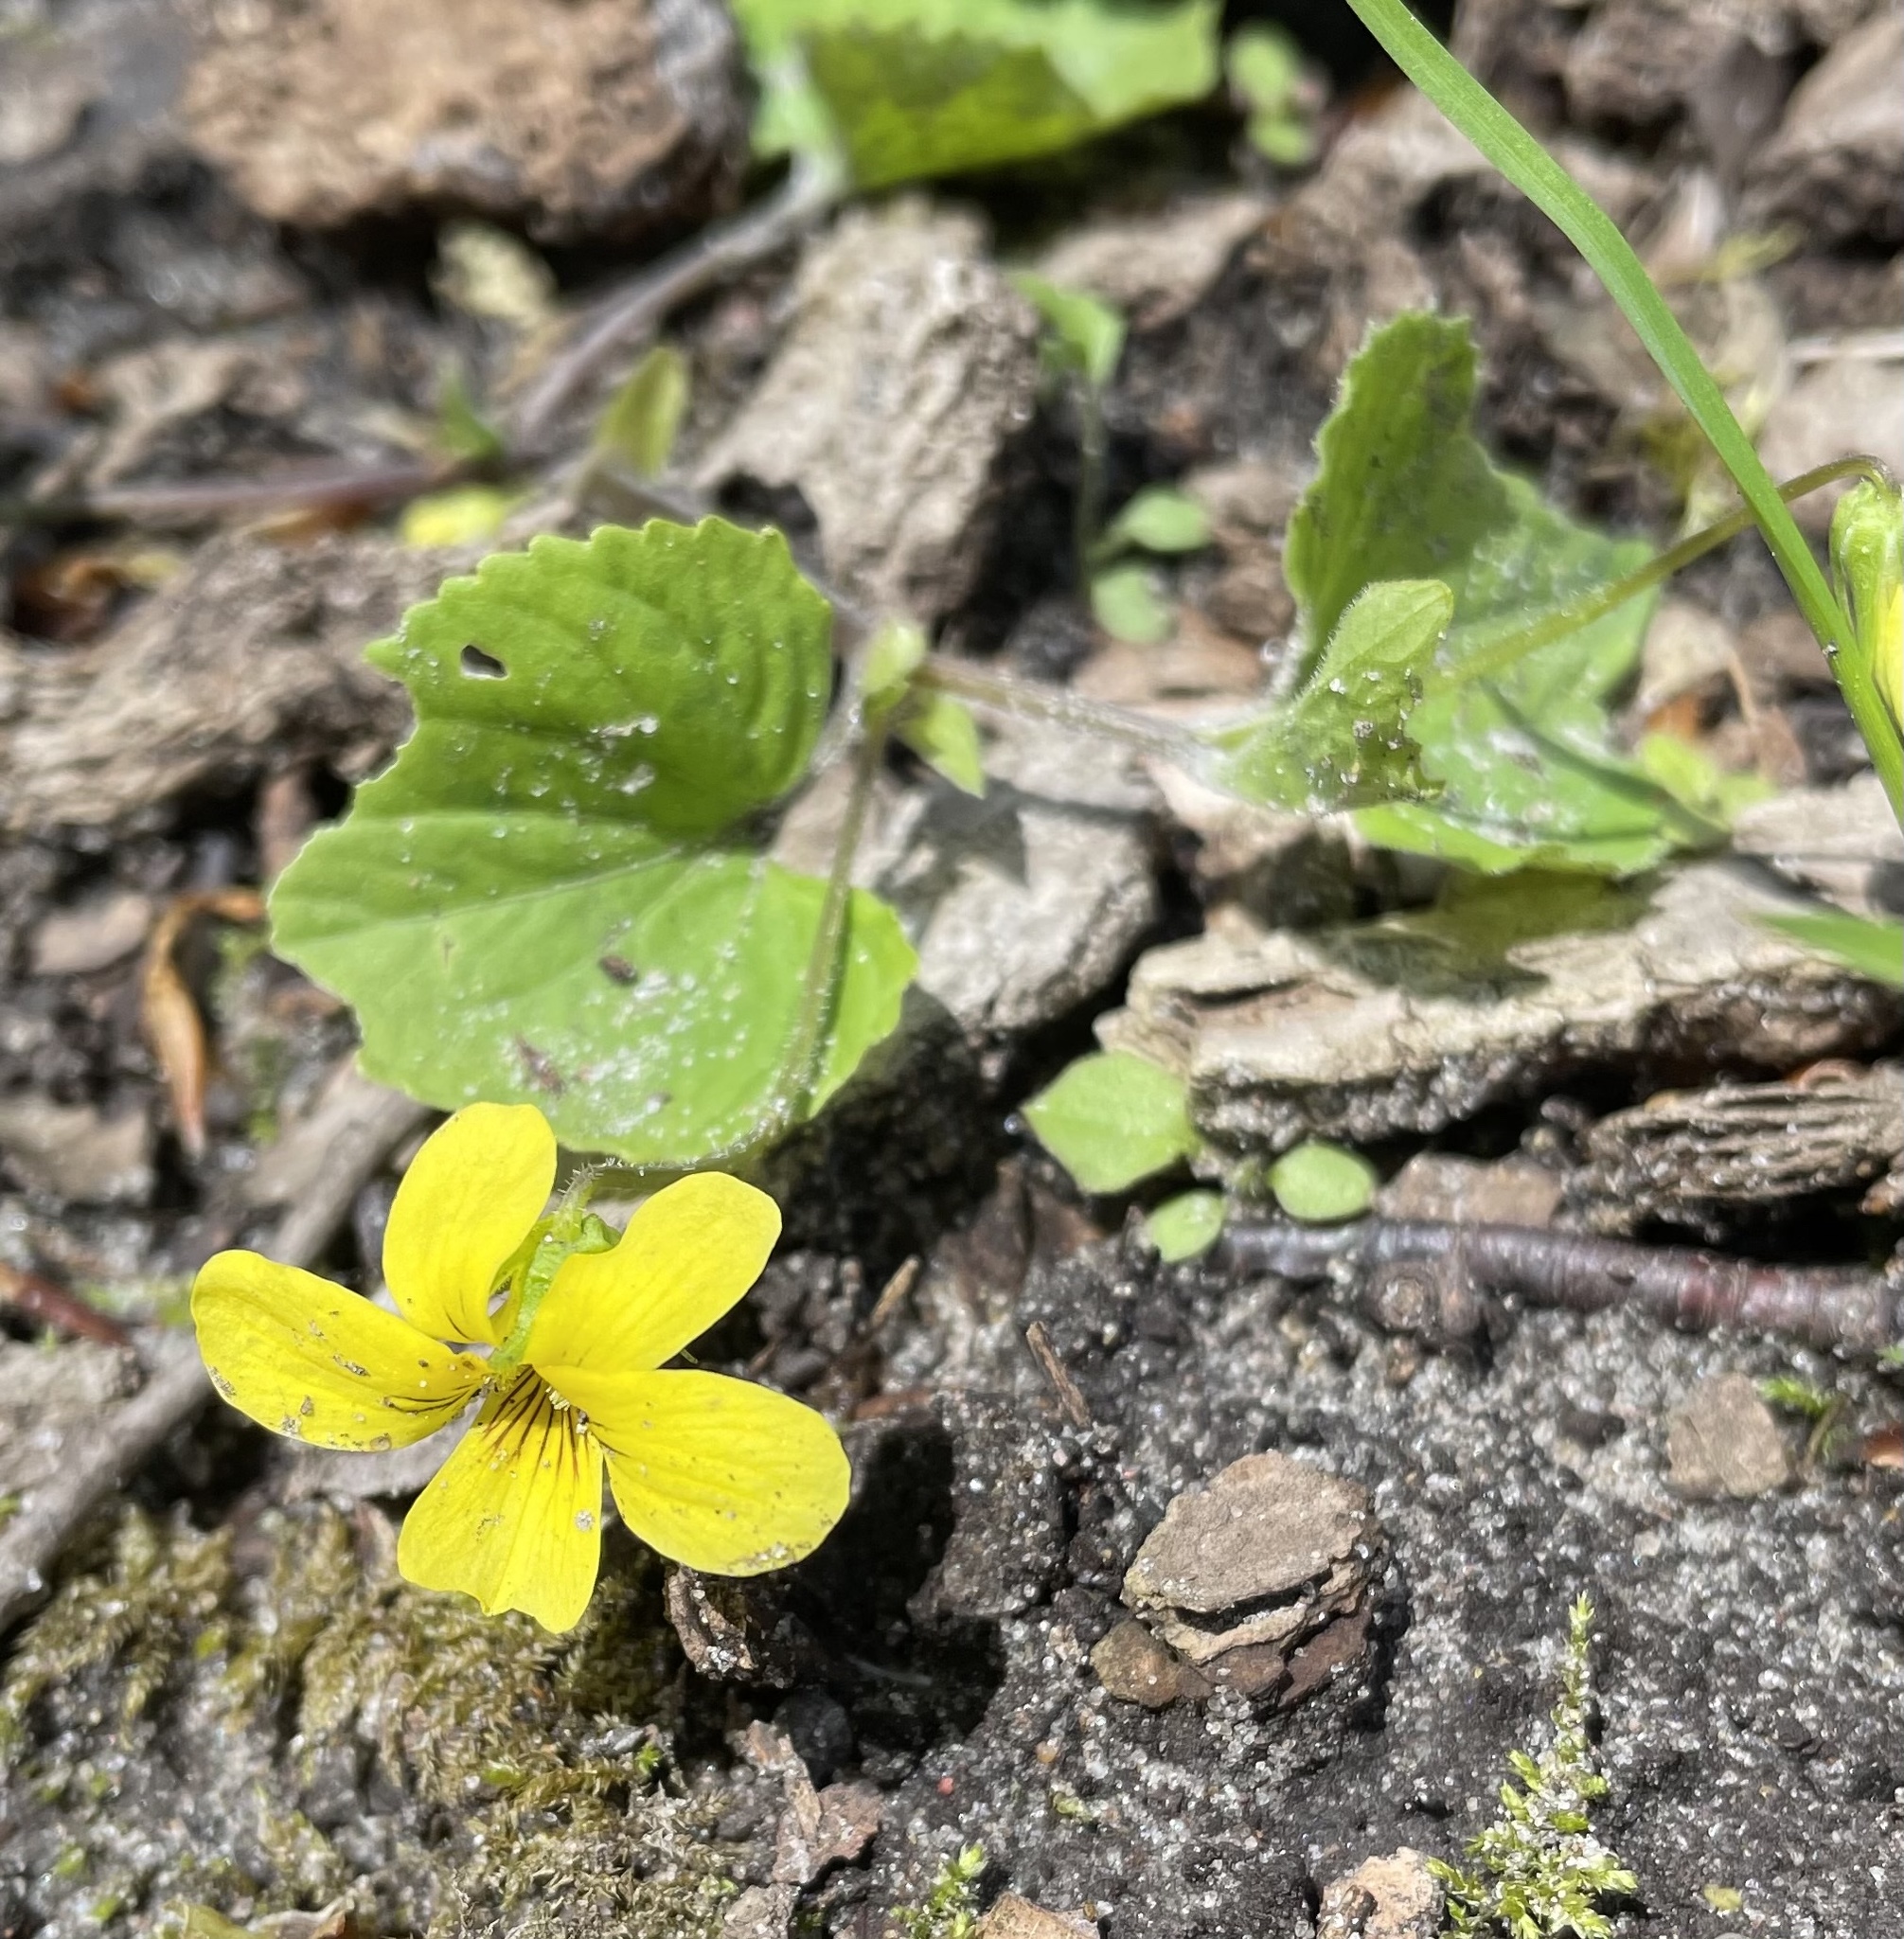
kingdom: Plantae
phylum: Tracheophyta
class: Magnoliopsida
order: Malpighiales
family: Violaceae
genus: Viola
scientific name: Viola eriocarpa
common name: Smooth yellow violet
